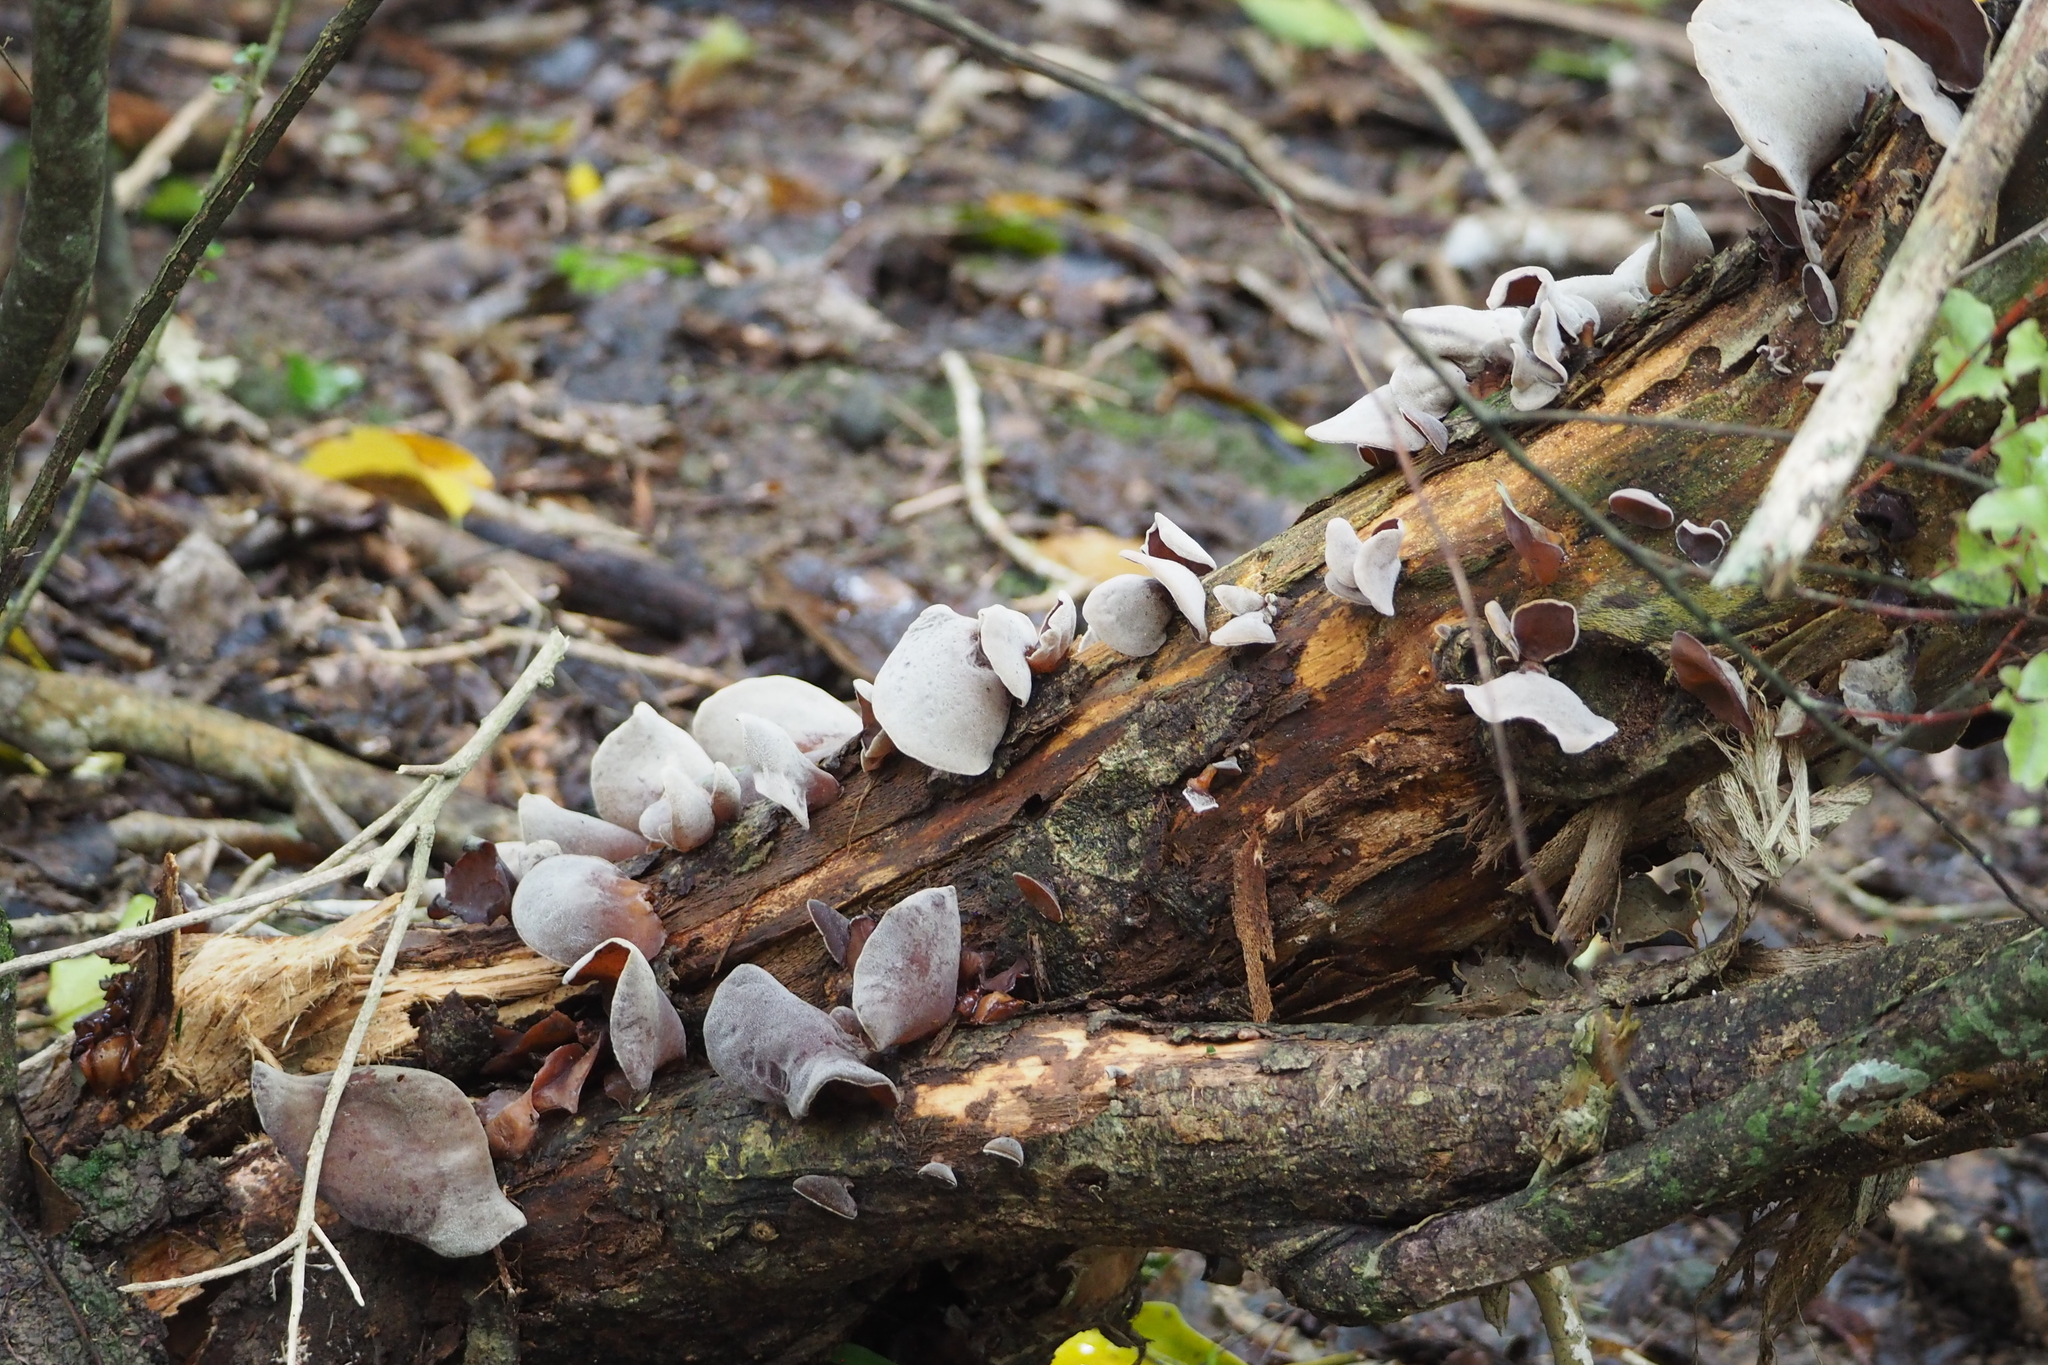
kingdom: Fungi
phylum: Basidiomycota
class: Agaricomycetes
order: Auriculariales
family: Auriculariaceae
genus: Auricularia
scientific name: Auricularia cornea
